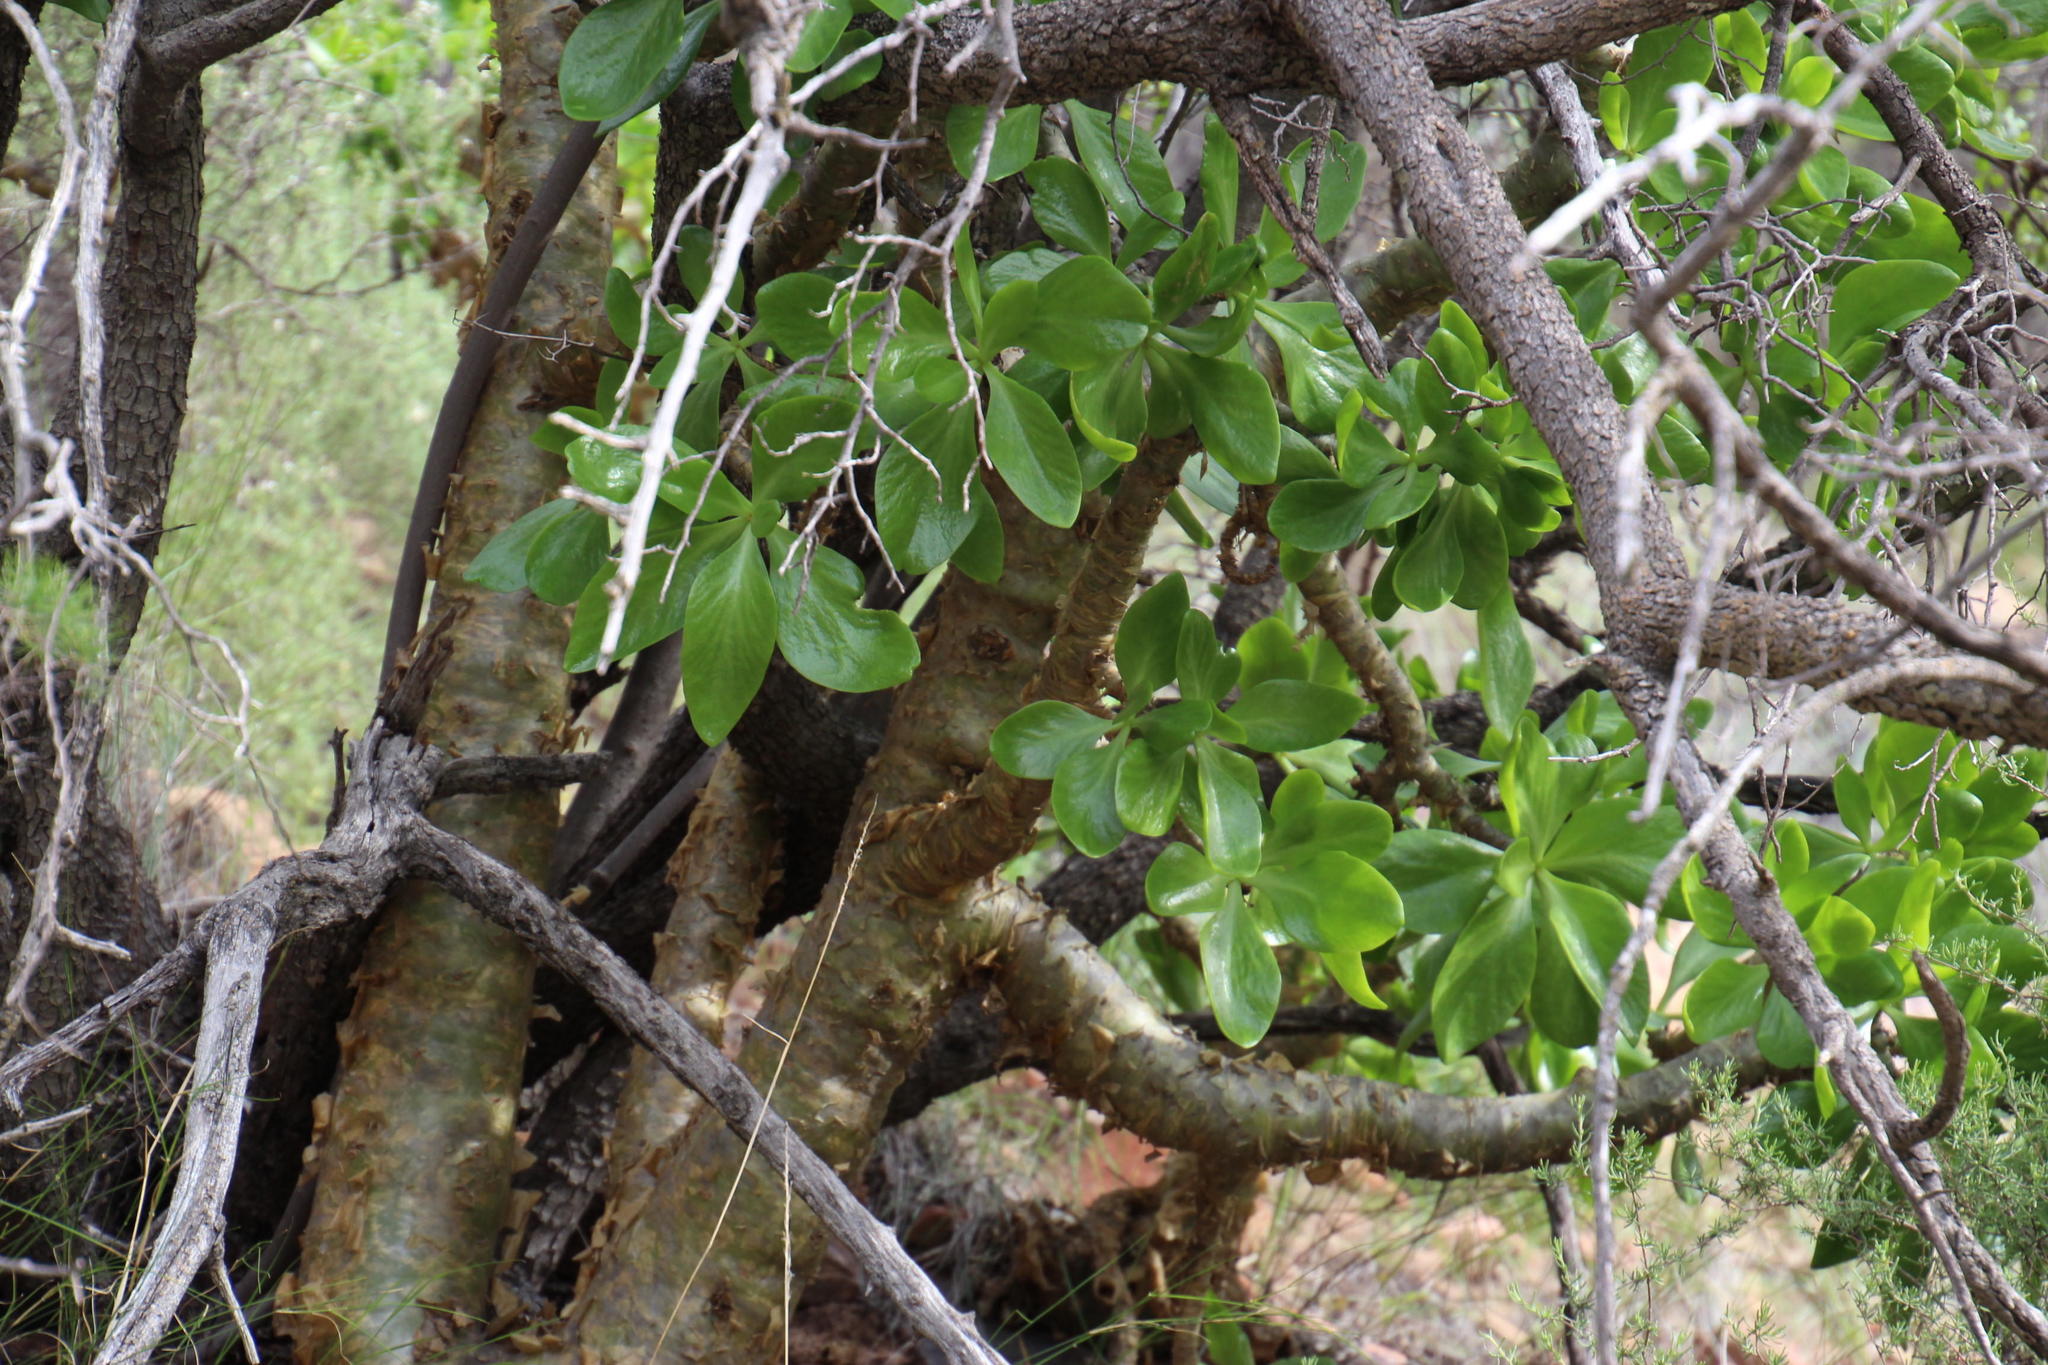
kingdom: Plantae
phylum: Tracheophyta
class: Magnoliopsida
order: Saxifragales
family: Crassulaceae
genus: Tylecodon
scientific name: Tylecodon paniculatus
